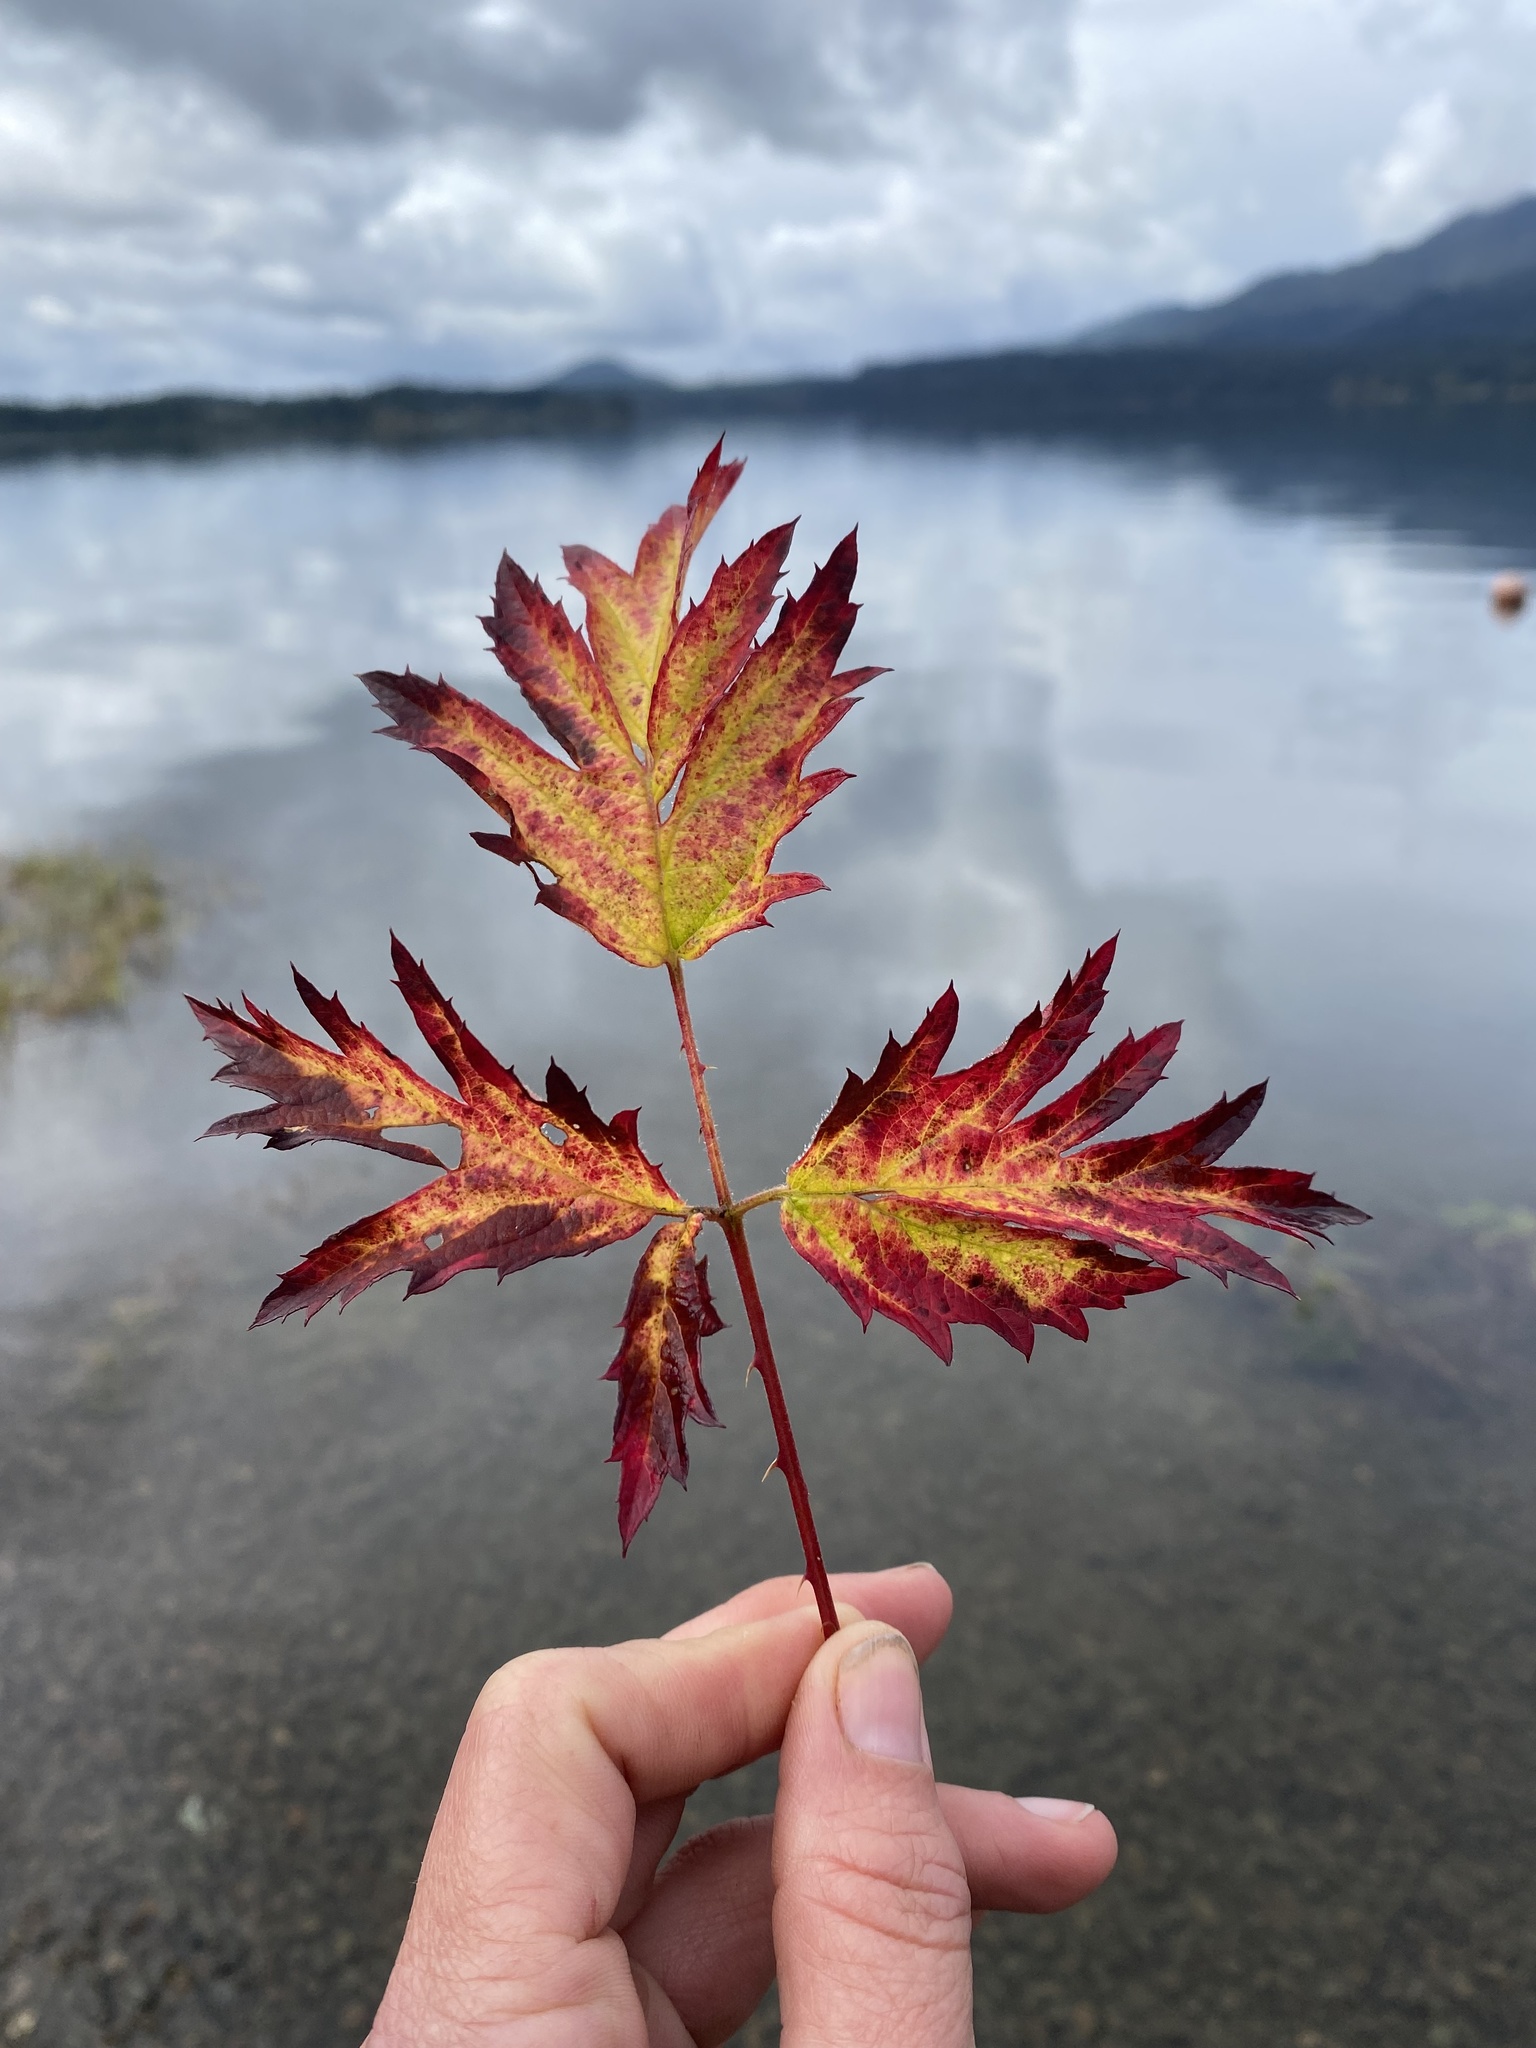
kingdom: Plantae
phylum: Tracheophyta
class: Magnoliopsida
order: Rosales
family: Rosaceae
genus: Rubus
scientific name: Rubus laciniatus
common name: Evergreen blackberry
